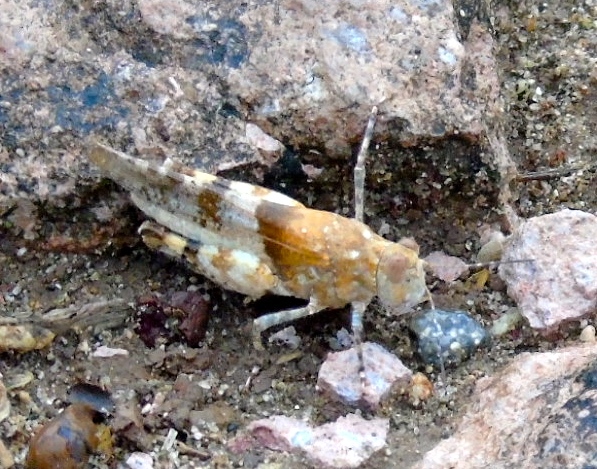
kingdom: Animalia
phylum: Arthropoda
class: Insecta
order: Orthoptera
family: Acrididae
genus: Heliastus
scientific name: Heliastus benjamini
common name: Arroyo grasshopper
